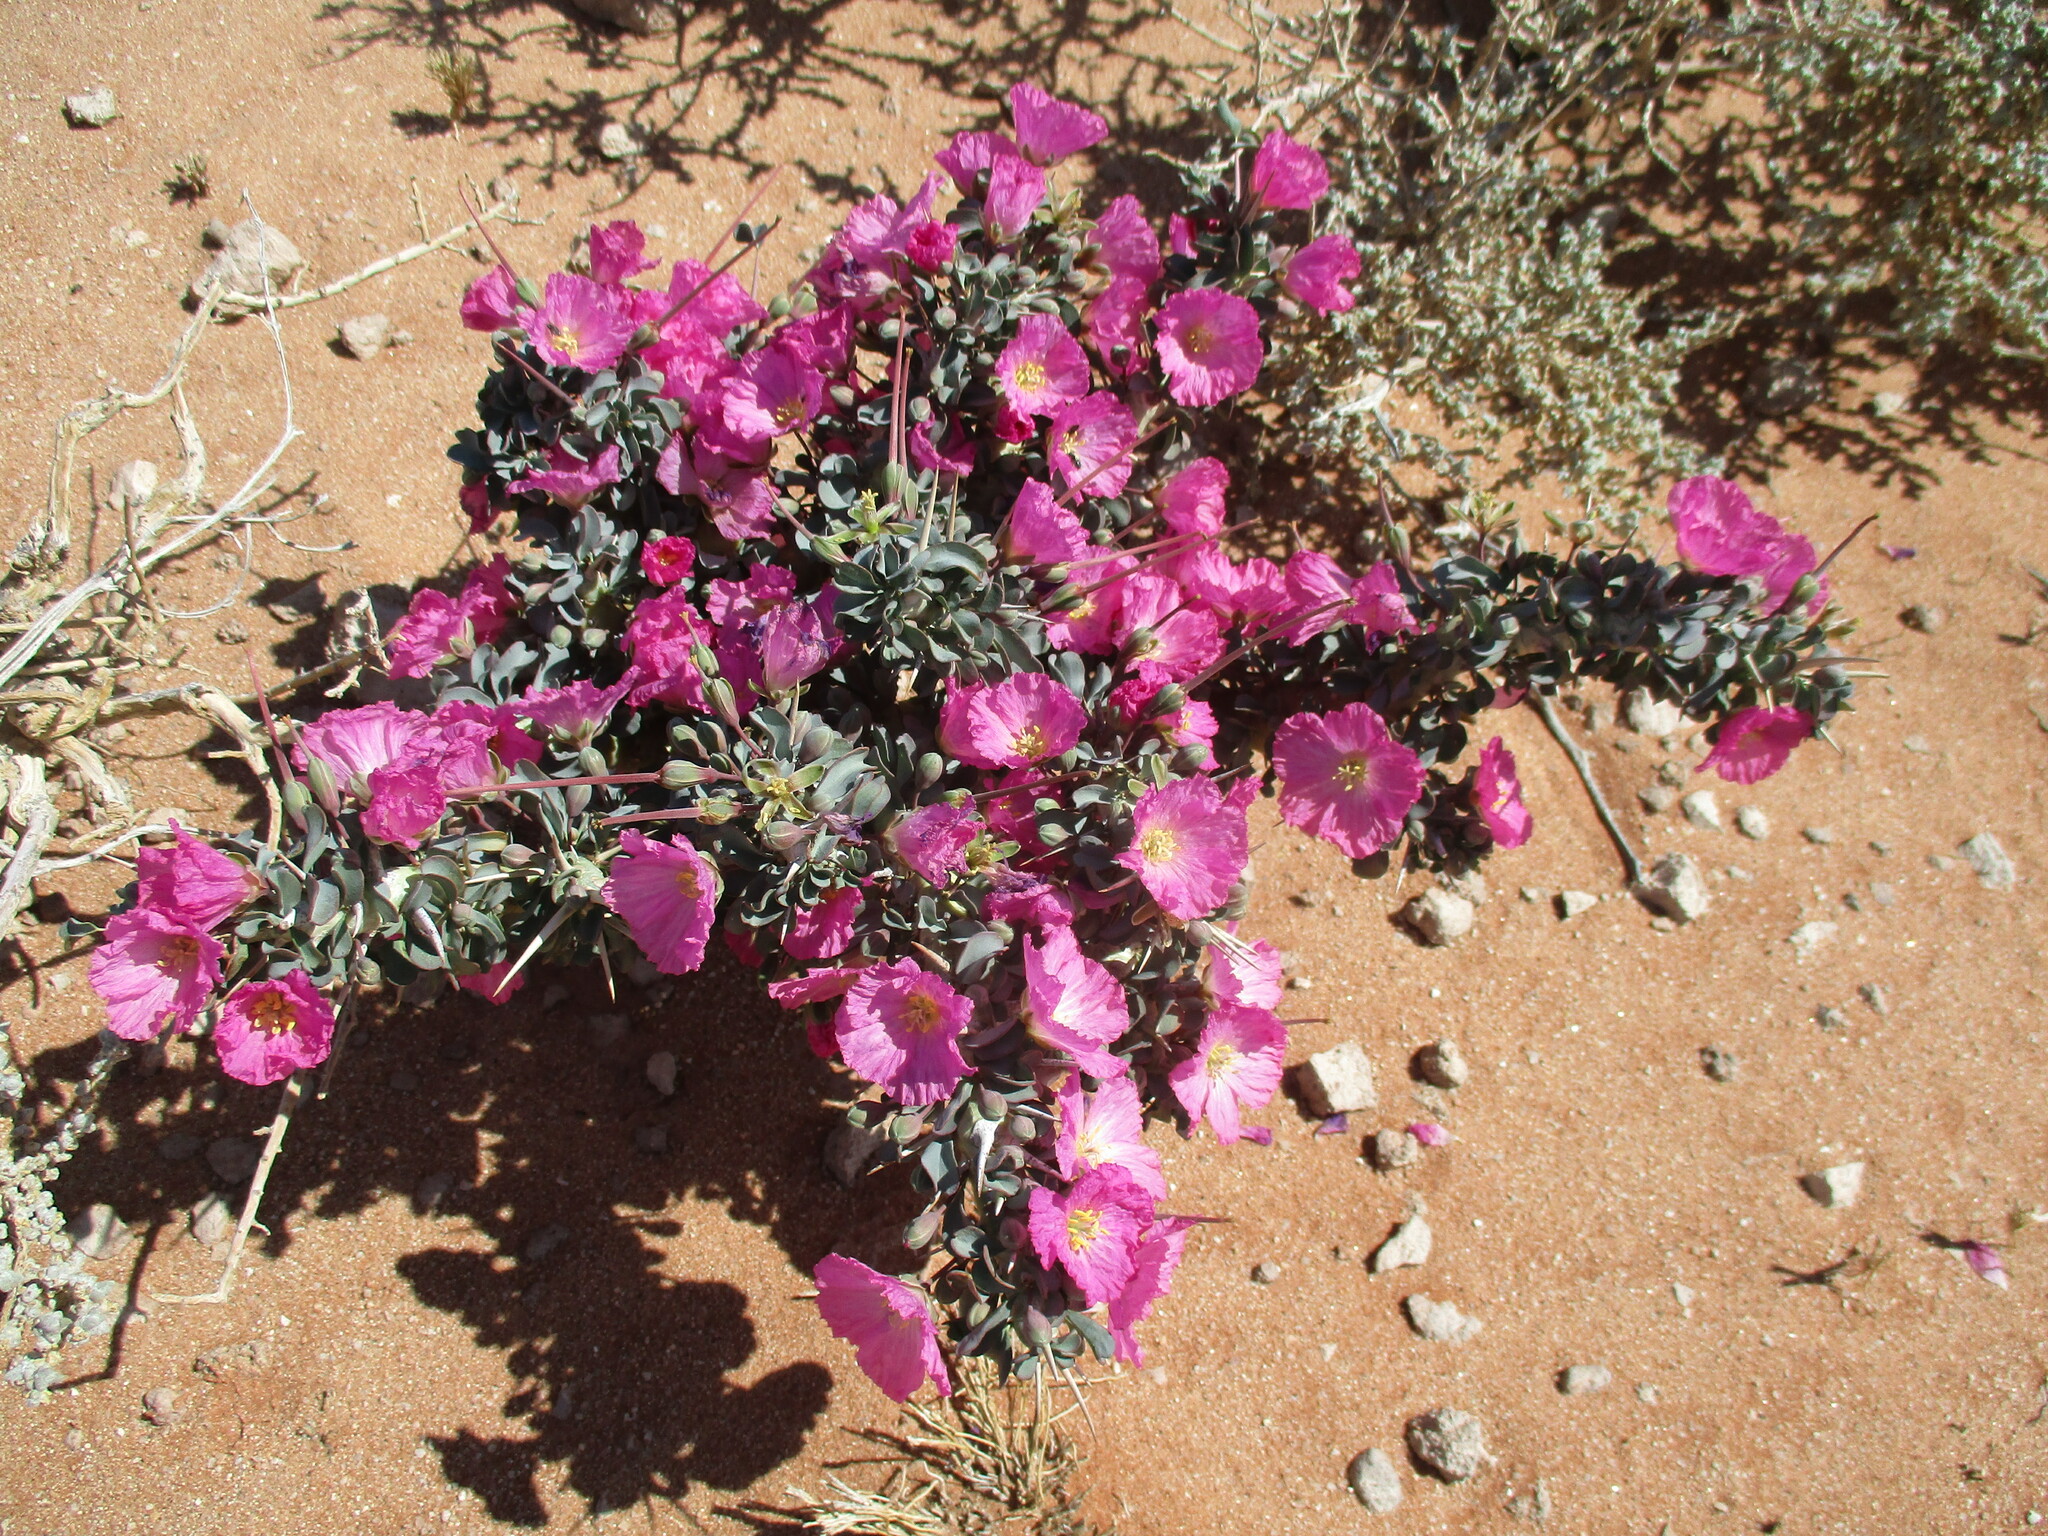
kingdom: Plantae
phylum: Tracheophyta
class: Magnoliopsida
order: Geraniales
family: Geraniaceae
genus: Monsonia
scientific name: Monsonia patersonii
